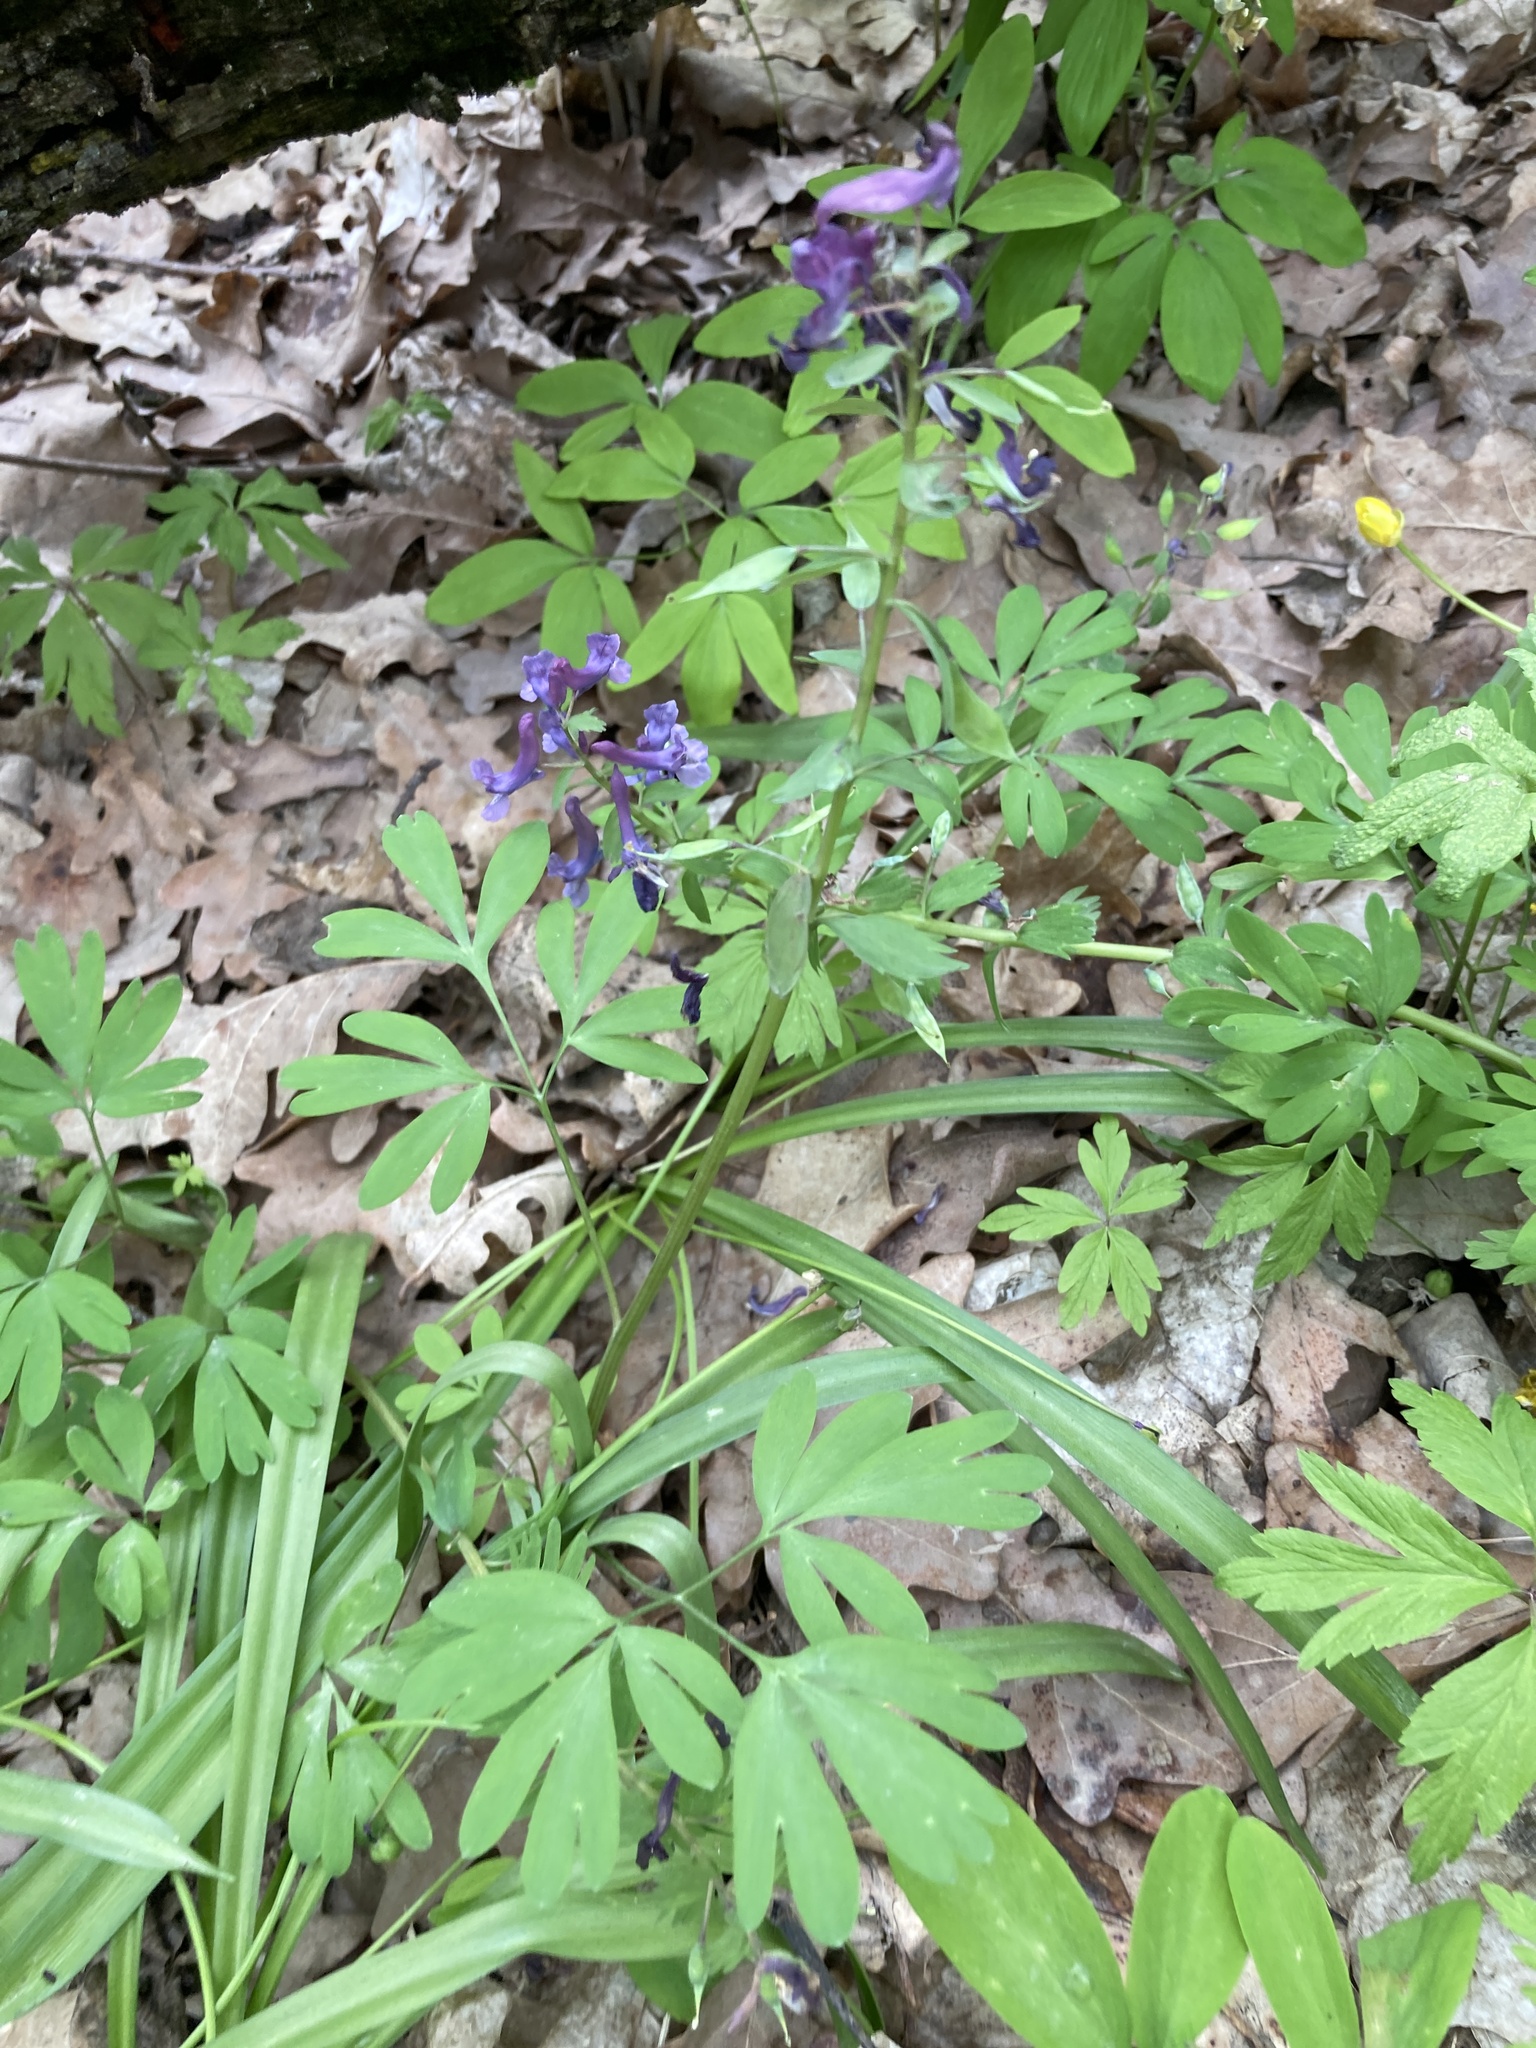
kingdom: Plantae
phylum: Tracheophyta
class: Magnoliopsida
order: Ranunculales
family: Papaveraceae
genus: Corydalis
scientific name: Corydalis solida
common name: Bird-in-a-bush
